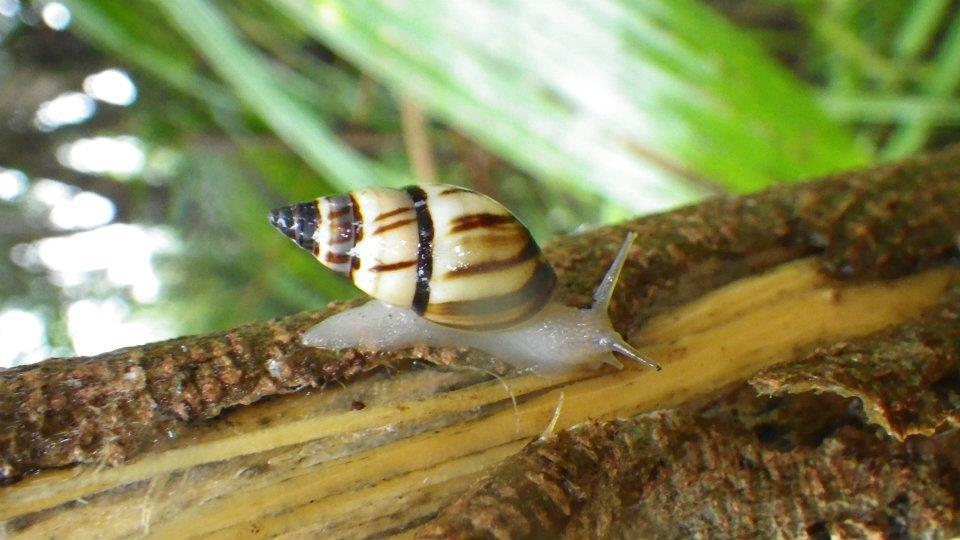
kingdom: Animalia
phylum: Mollusca
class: Gastropoda
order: Stylommatophora
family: Bulimulidae
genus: Drymaeus
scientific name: Drymaeus
